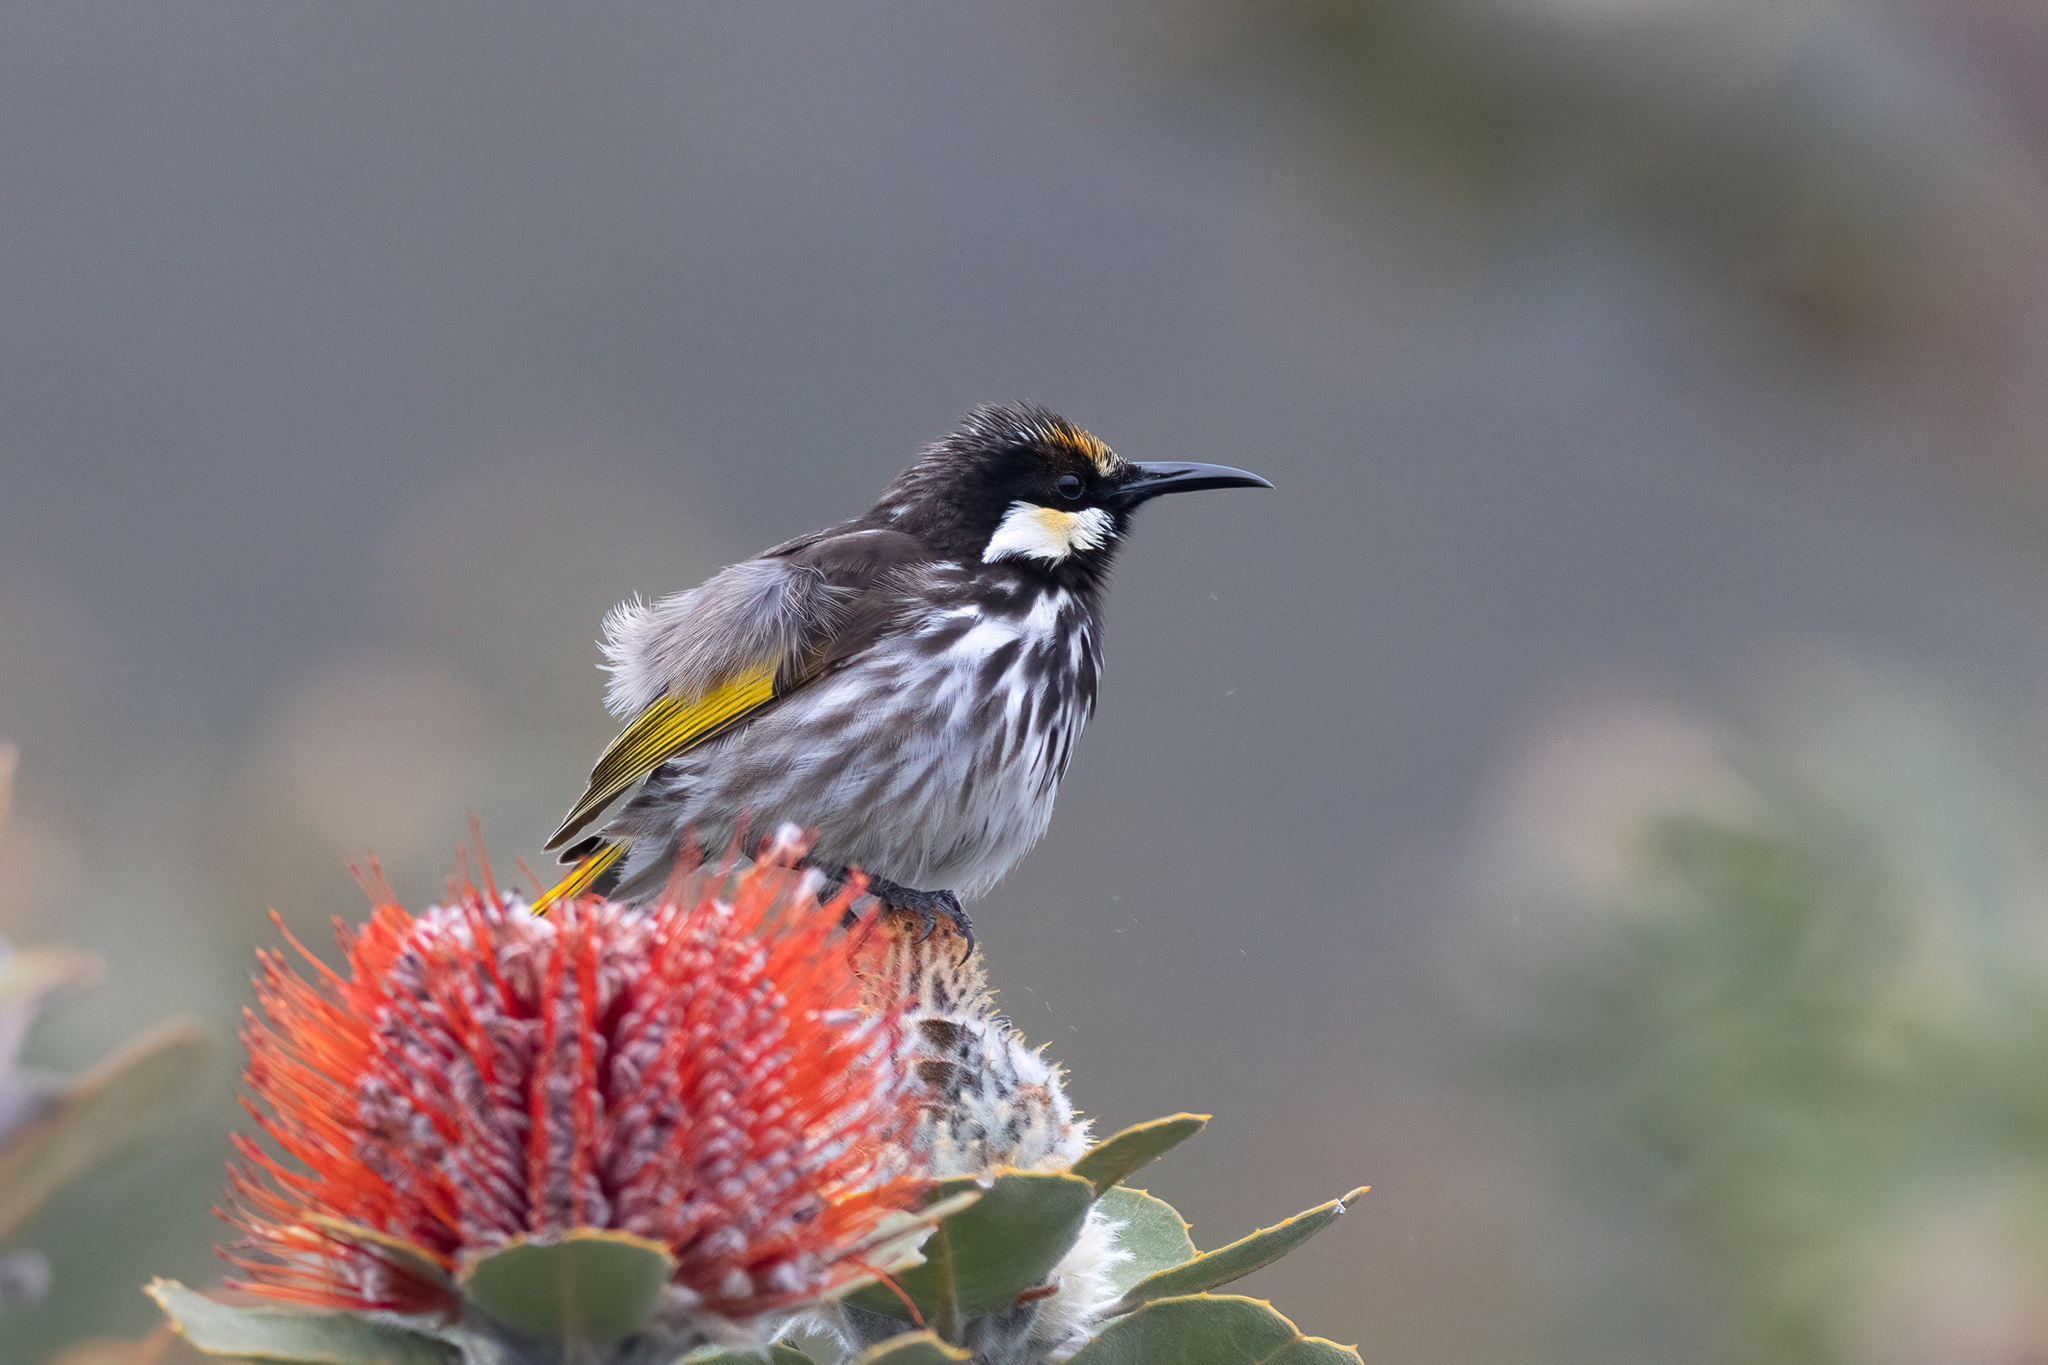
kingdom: Animalia
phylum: Chordata
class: Aves
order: Passeriformes
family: Meliphagidae
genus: Phylidonyris
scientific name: Phylidonyris niger
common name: White-cheeked honeyeater
